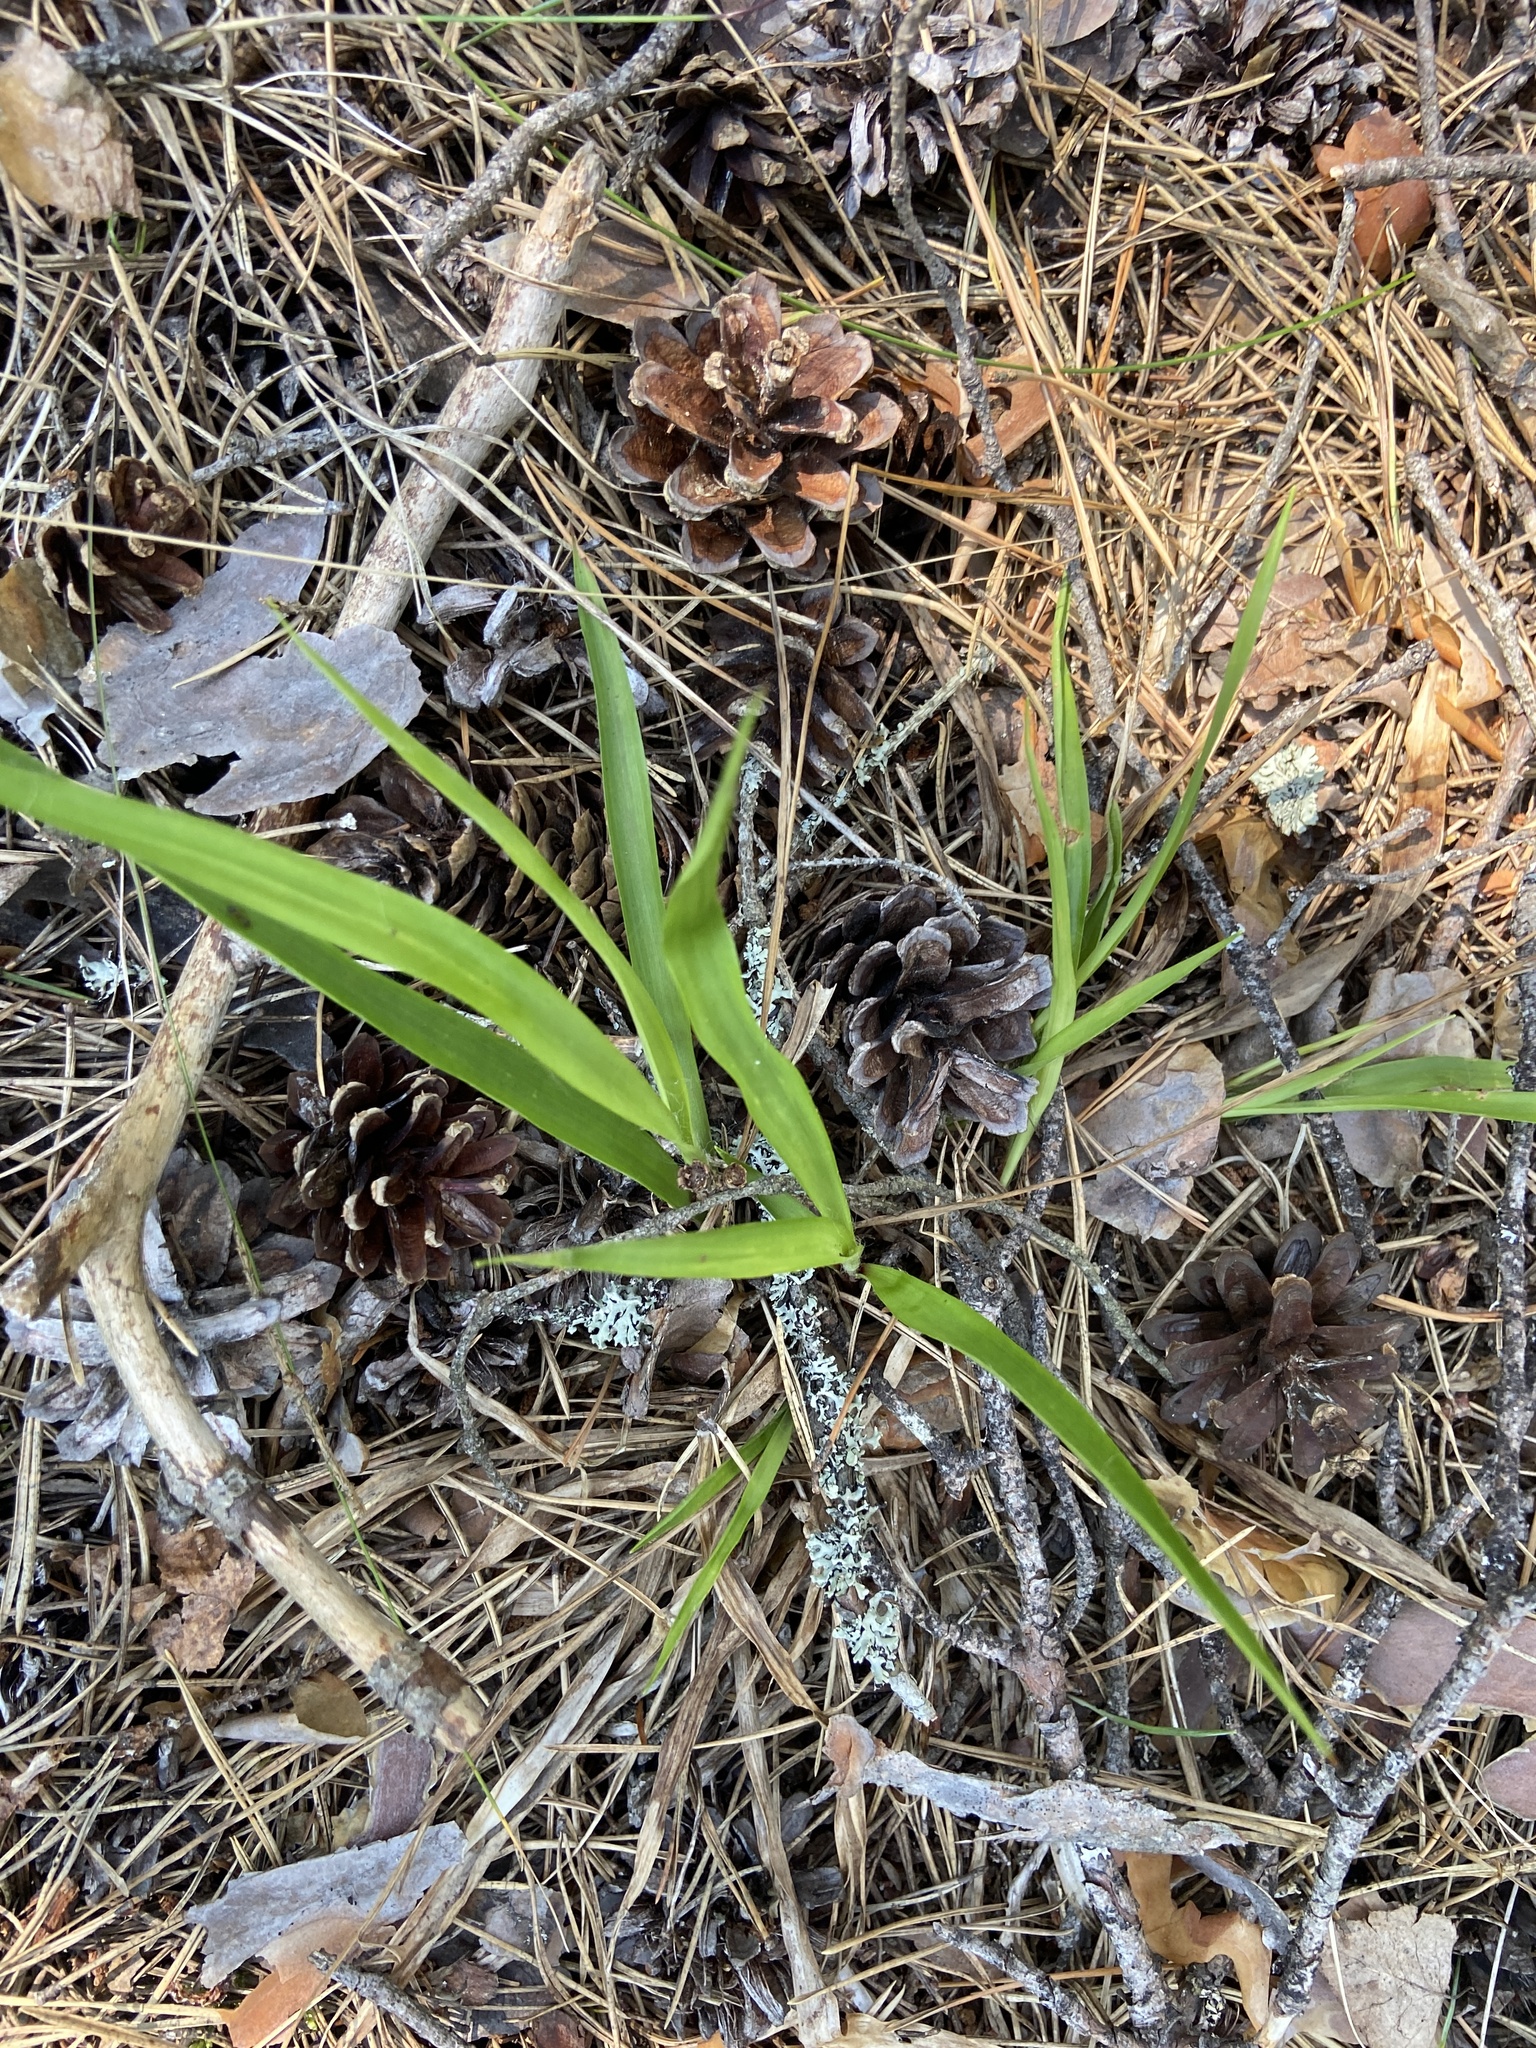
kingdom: Plantae
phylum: Tracheophyta
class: Liliopsida
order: Poales
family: Juncaceae
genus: Luzula
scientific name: Luzula pilosa
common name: Hairy wood-rush
